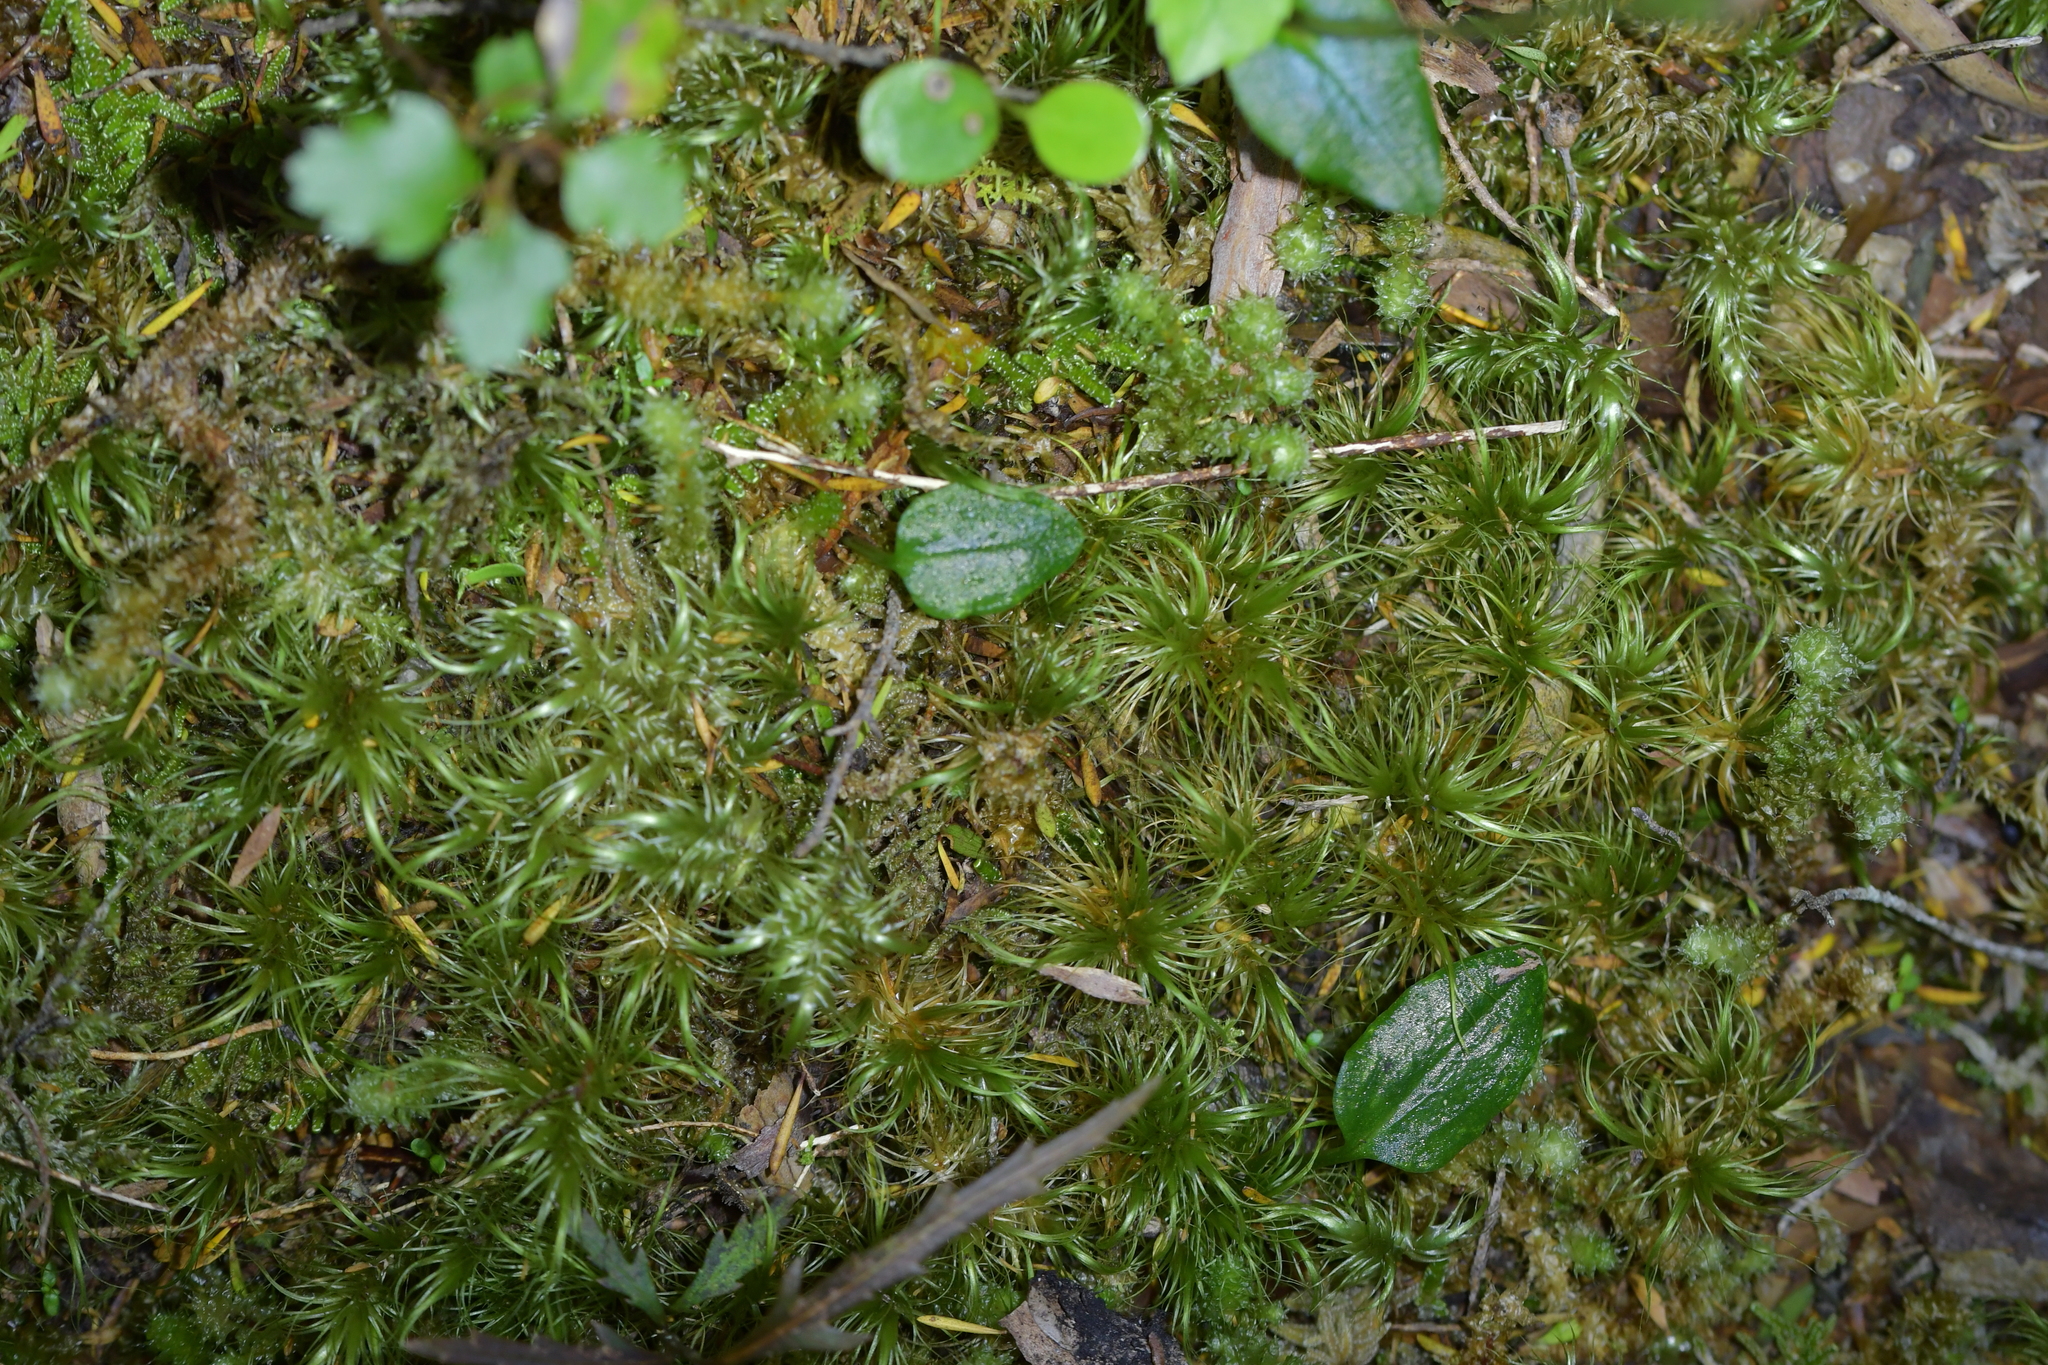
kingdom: Plantae
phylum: Tracheophyta
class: Liliopsida
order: Asparagales
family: Orchidaceae
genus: Adenochilus
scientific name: Adenochilus gracilis
